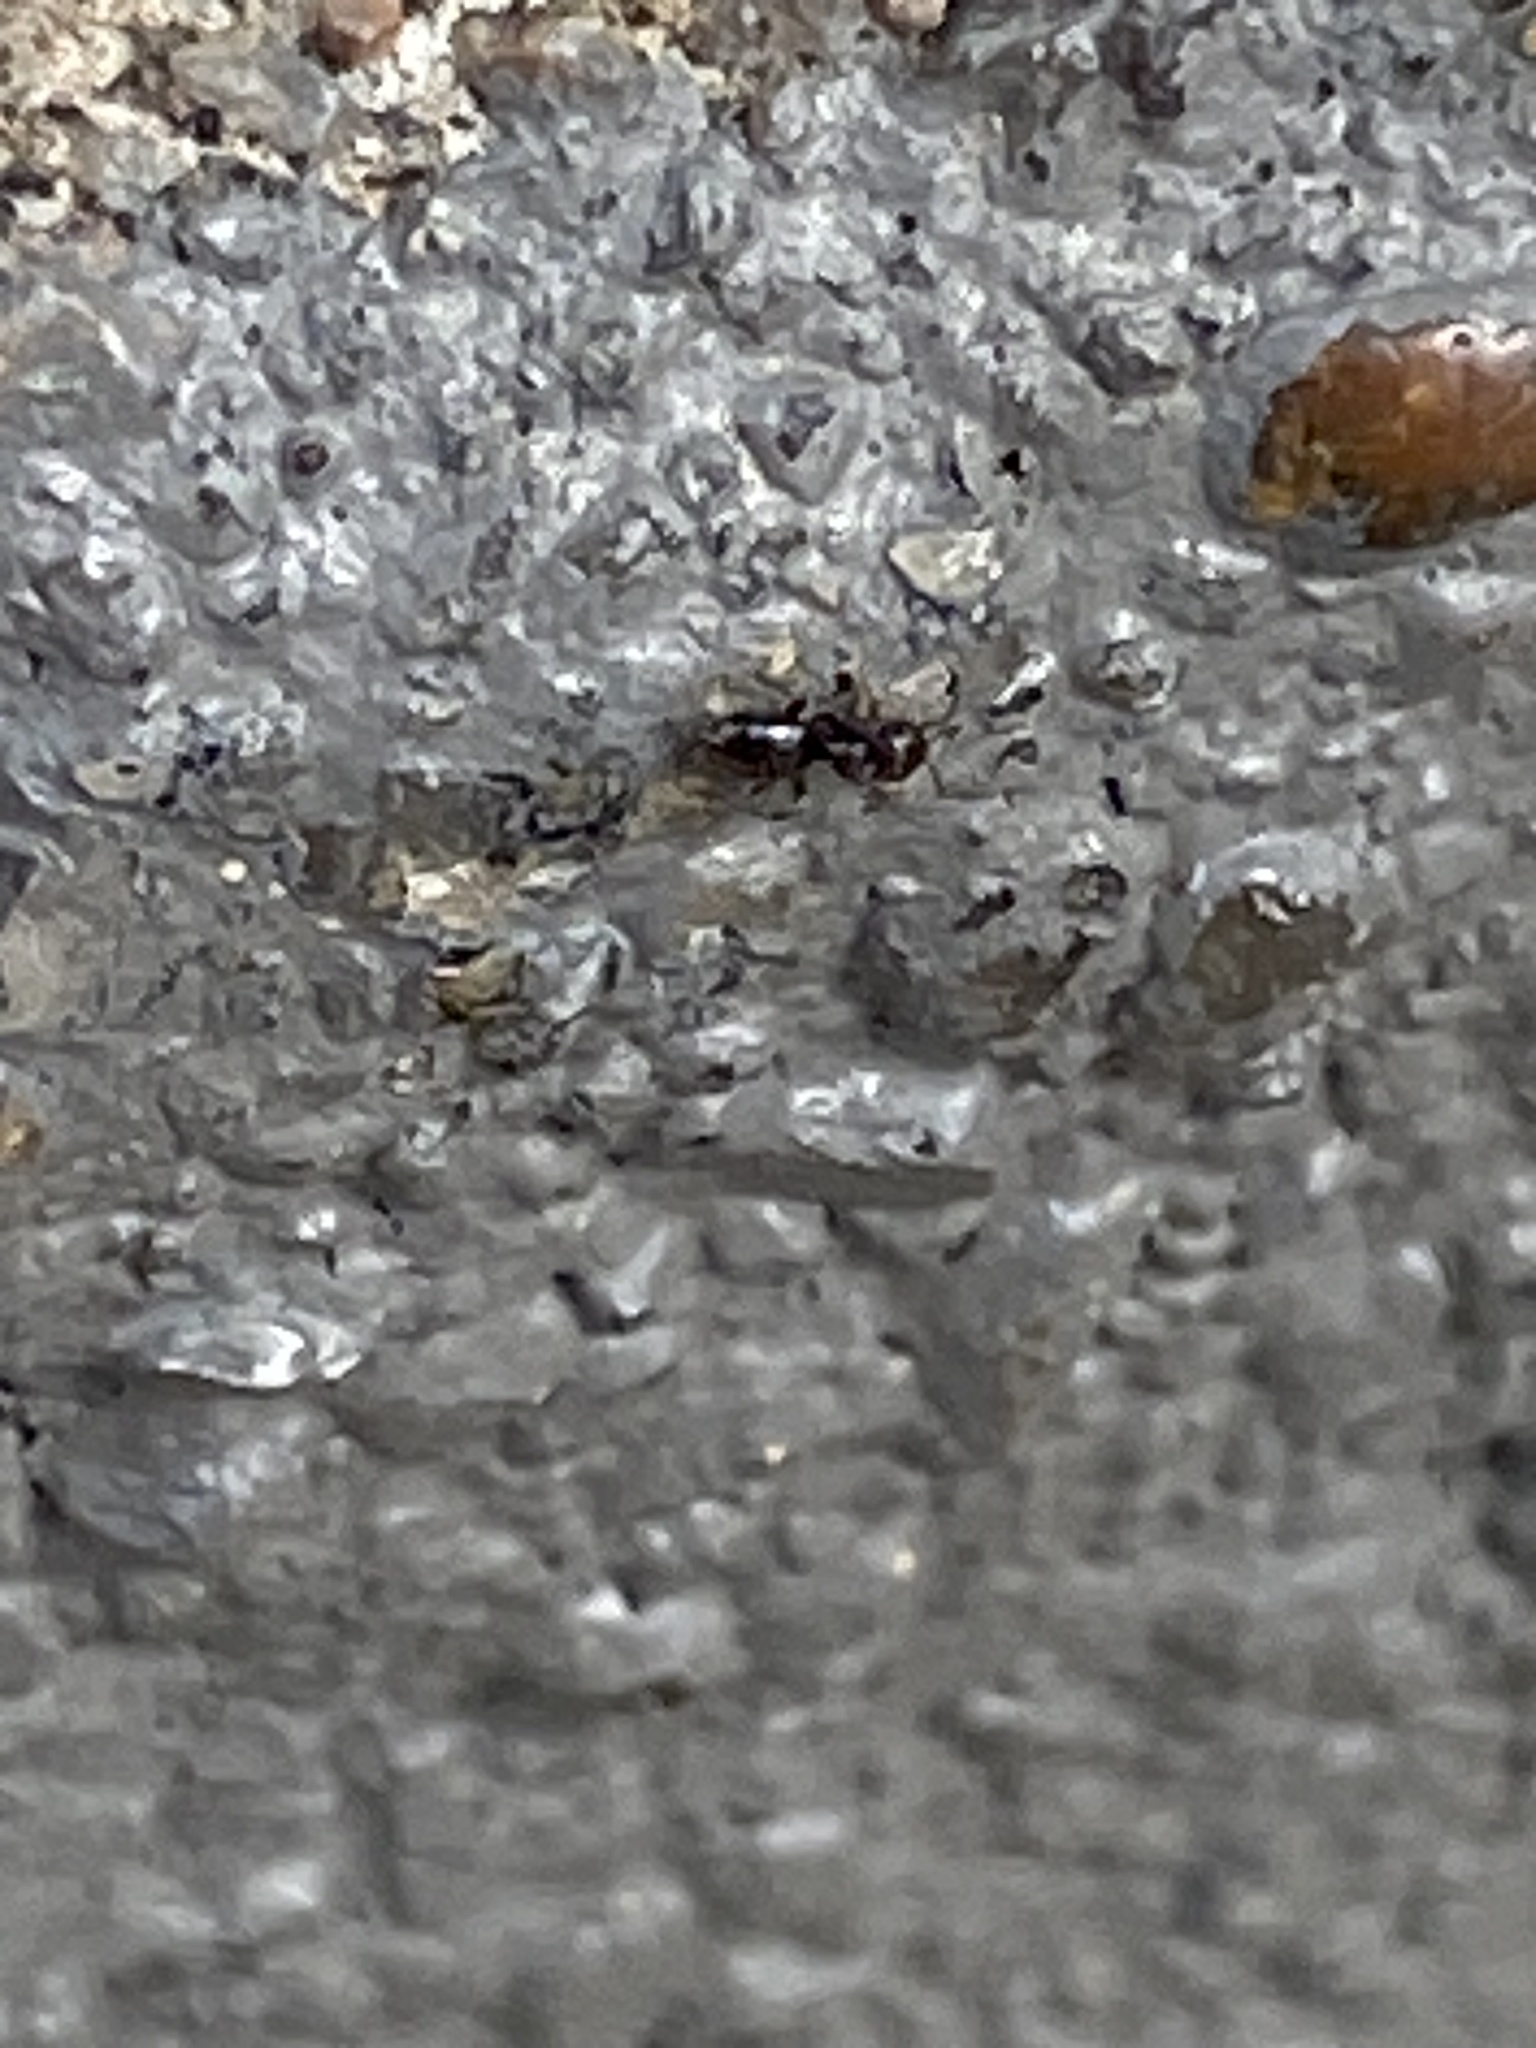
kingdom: Animalia
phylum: Arthropoda
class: Insecta
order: Hymenoptera
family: Formicidae
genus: Brachymyrmex
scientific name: Brachymyrmex patagonicus
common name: Dark rover ant
